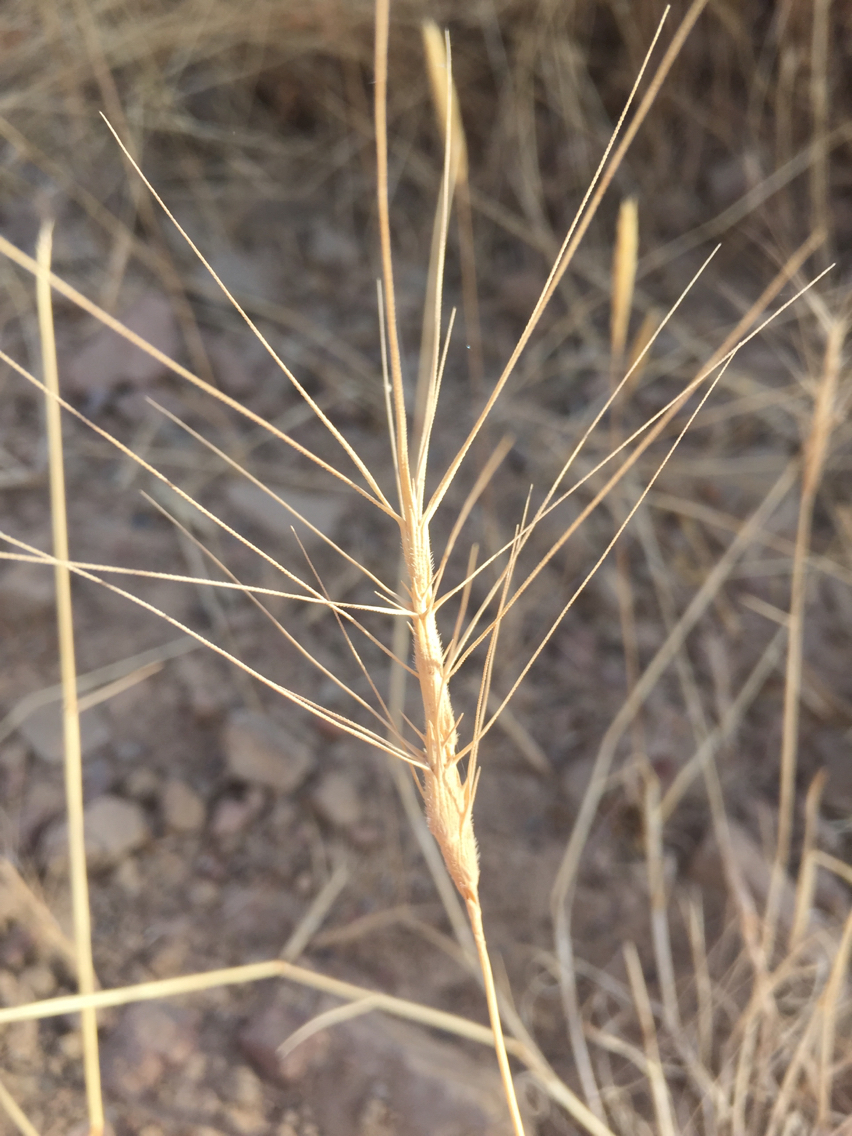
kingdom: Plantae
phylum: Tracheophyta
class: Liliopsida
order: Poales
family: Poaceae
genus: Aegilops
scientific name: Aegilops triuncialis
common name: Barb goat grass
